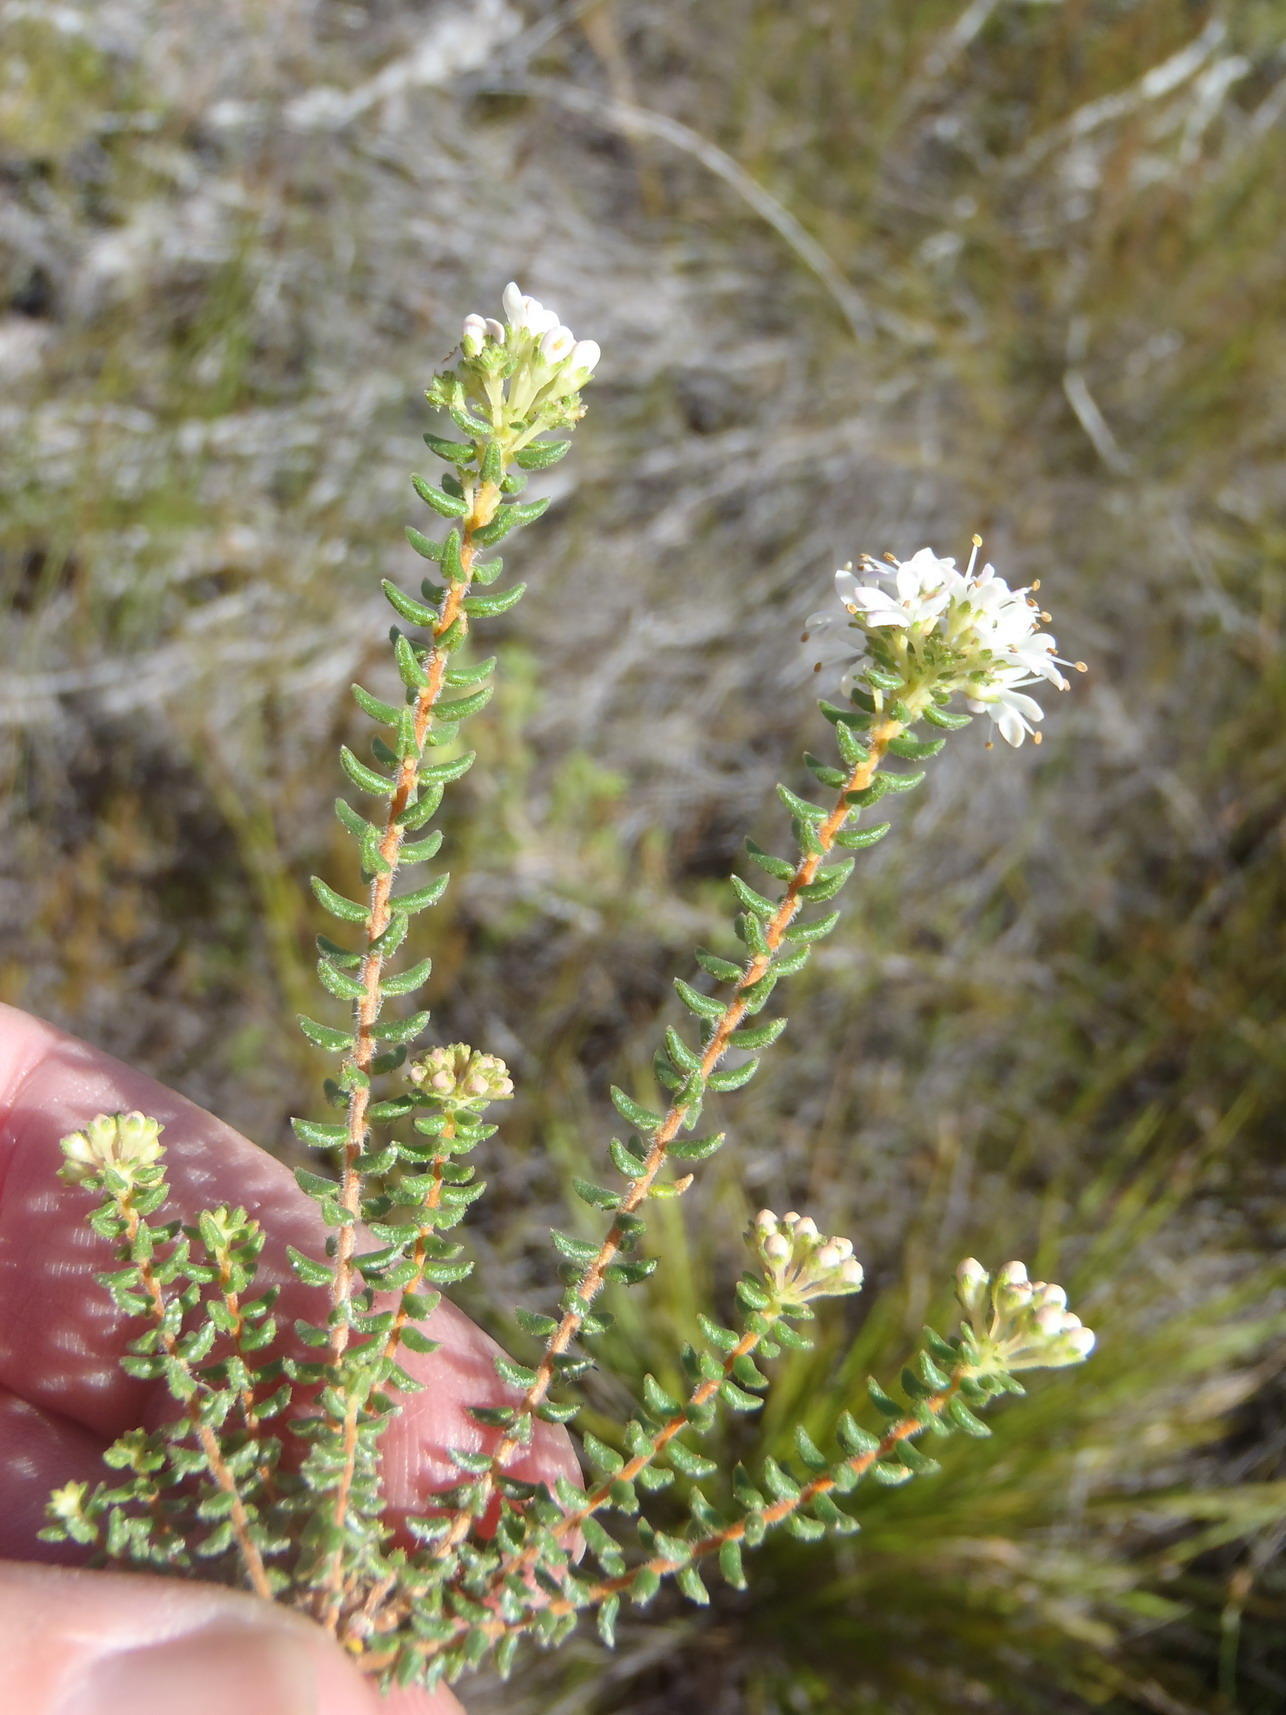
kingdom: Plantae
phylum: Tracheophyta
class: Magnoliopsida
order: Sapindales
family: Rutaceae
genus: Agathosma
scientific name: Agathosma mundtii
